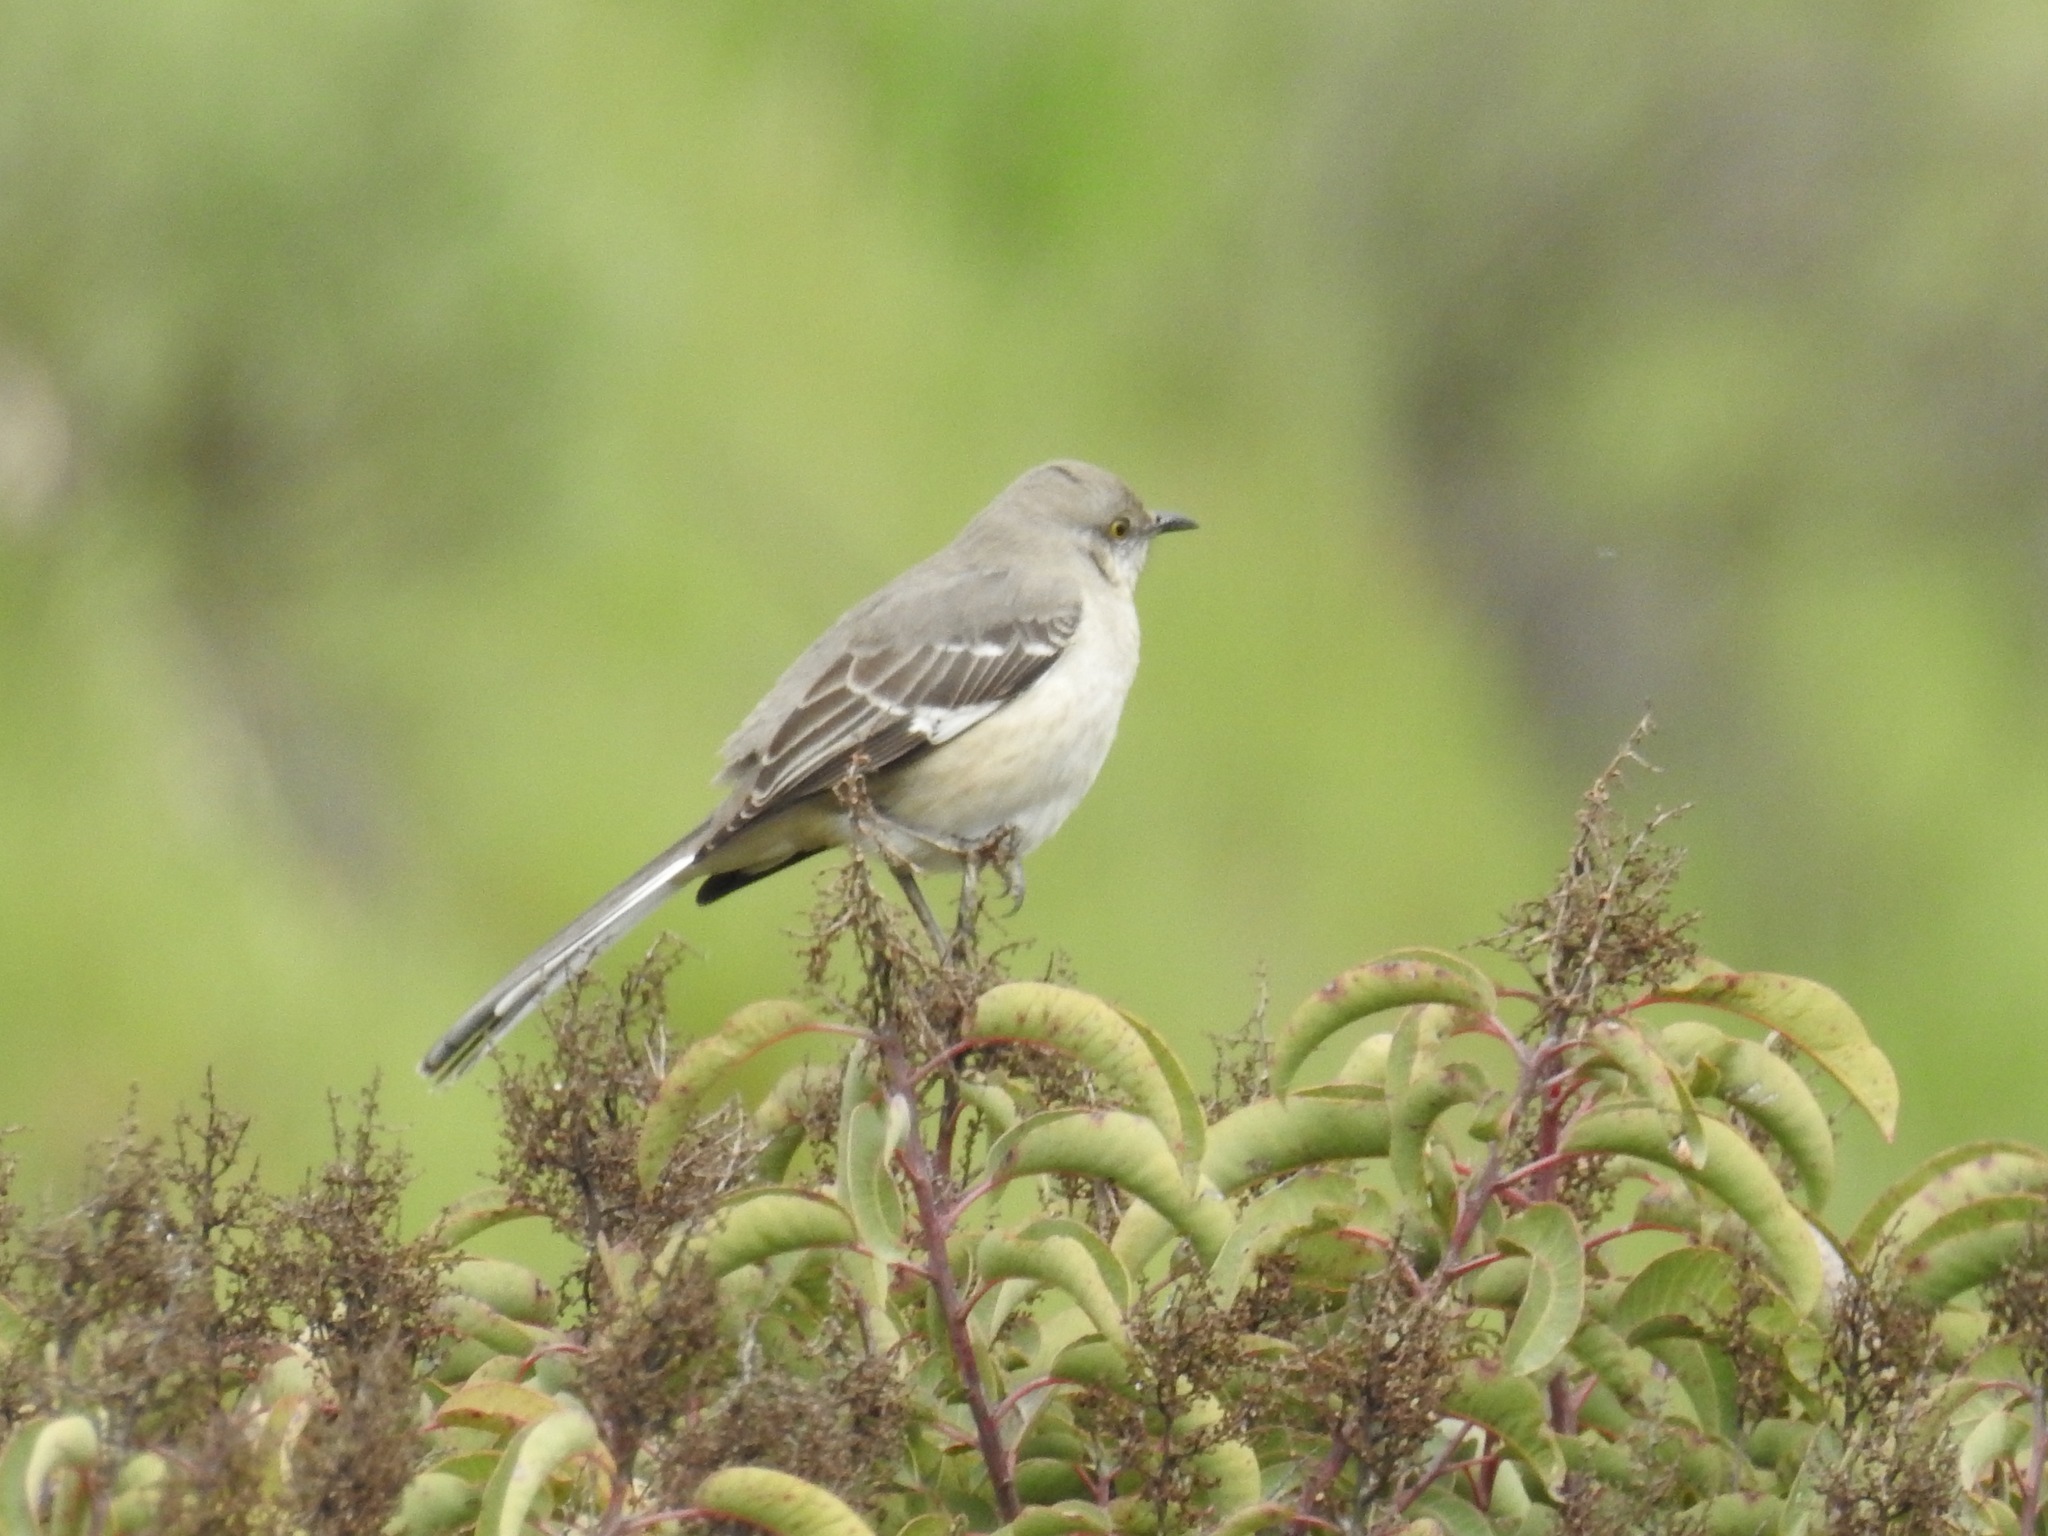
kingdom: Animalia
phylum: Chordata
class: Aves
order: Passeriformes
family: Mimidae
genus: Mimus
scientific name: Mimus polyglottos
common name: Northern mockingbird
